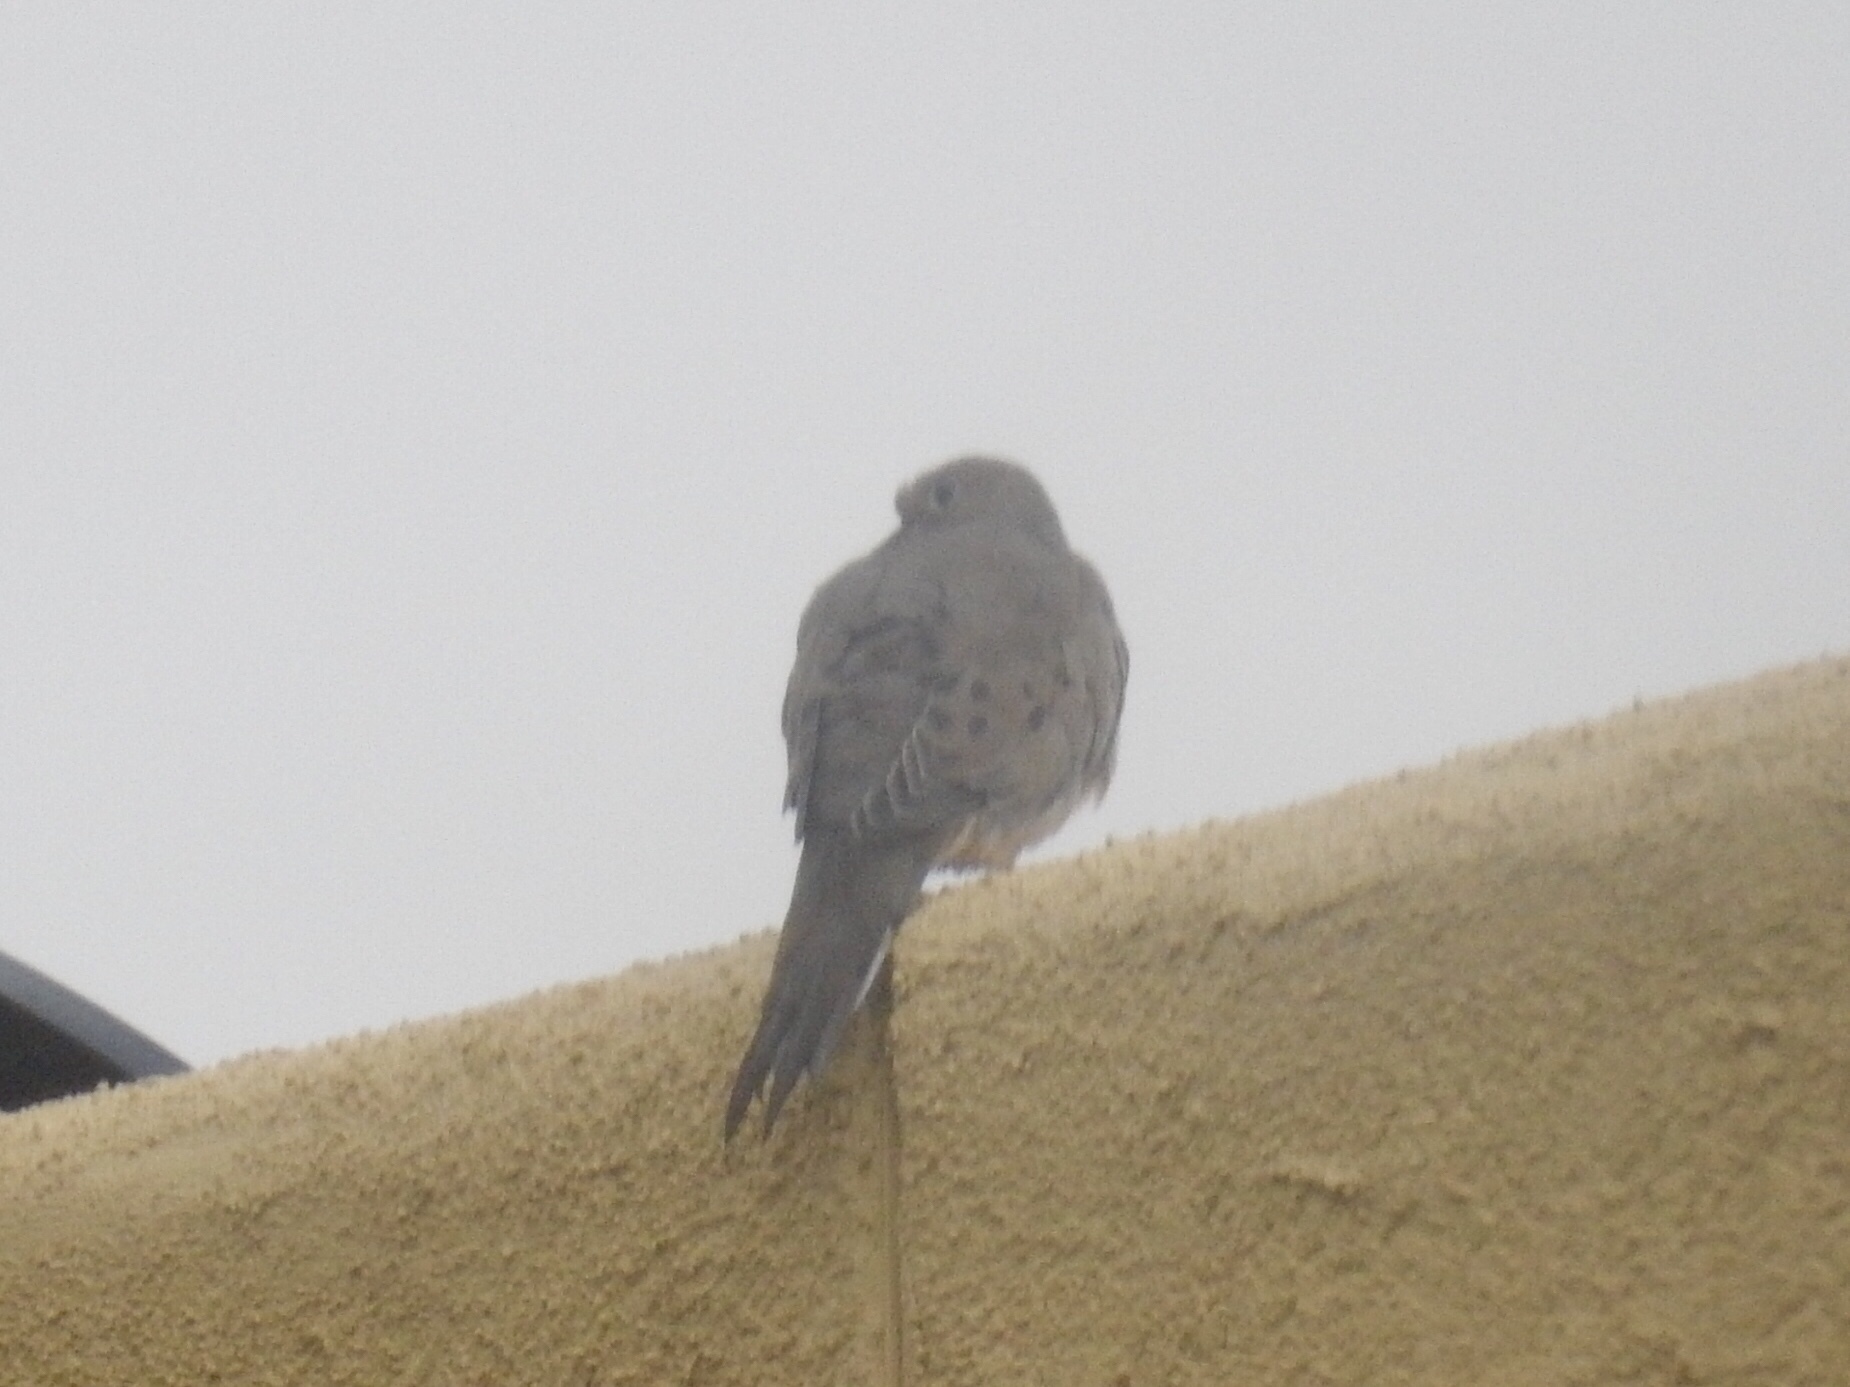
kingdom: Animalia
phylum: Chordata
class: Aves
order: Columbiformes
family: Columbidae
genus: Zenaida
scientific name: Zenaida macroura
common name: Mourning dove
